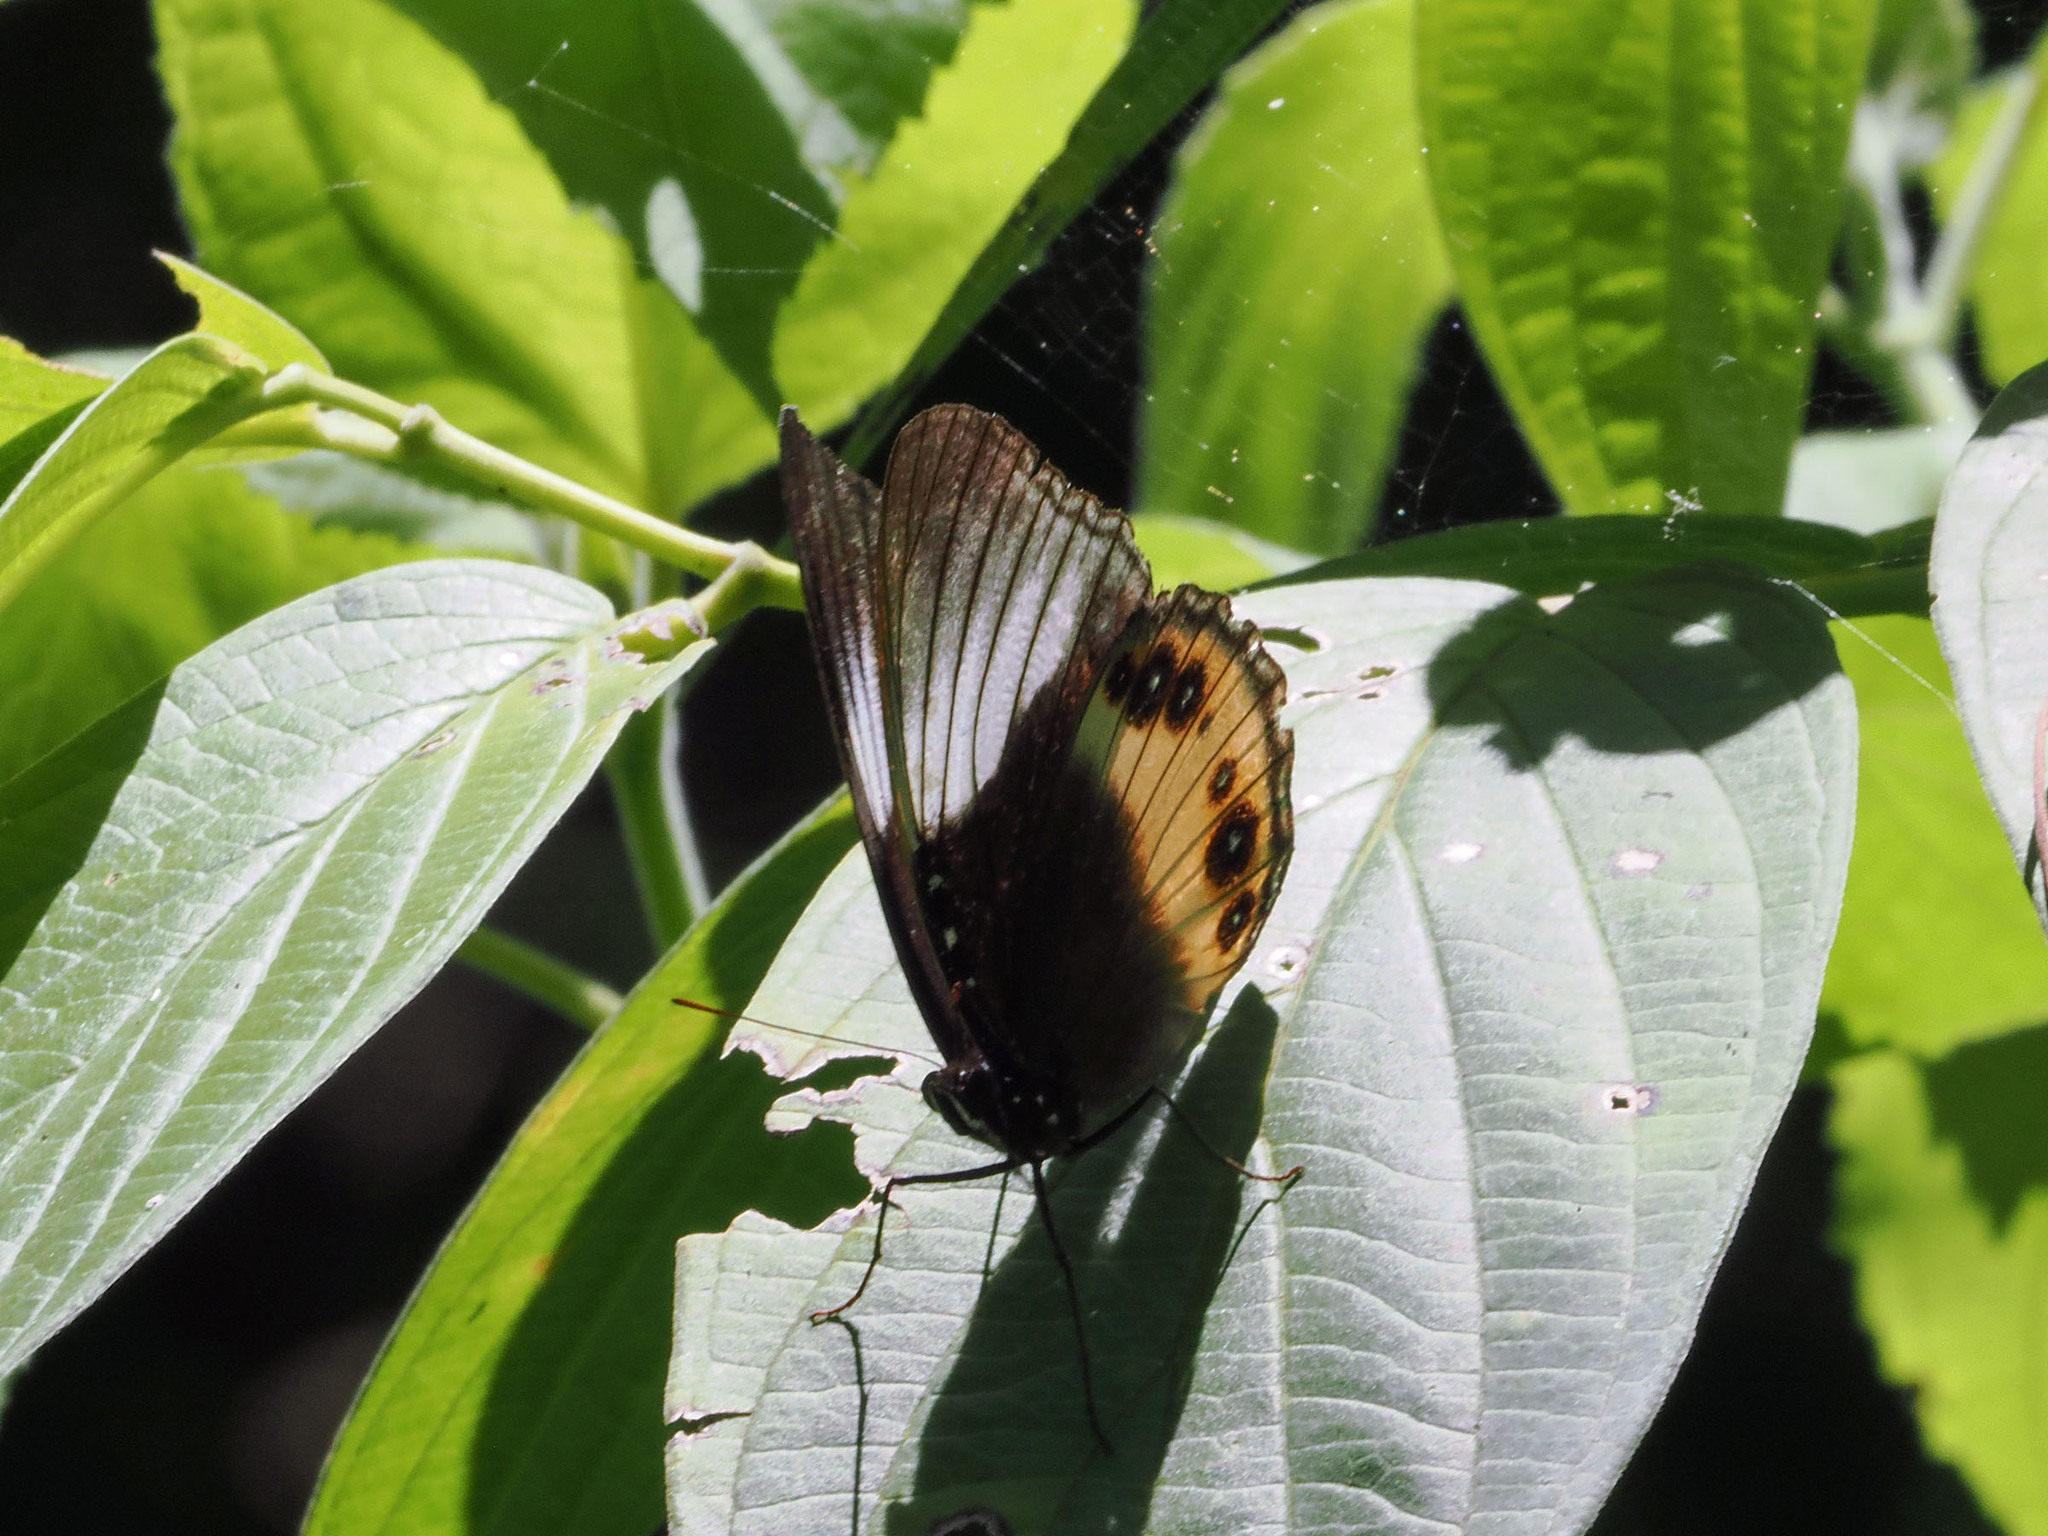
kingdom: Animalia
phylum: Arthropoda
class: Insecta
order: Lepidoptera
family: Nymphalidae
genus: Hypolimnas
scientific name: Hypolimnas deois
